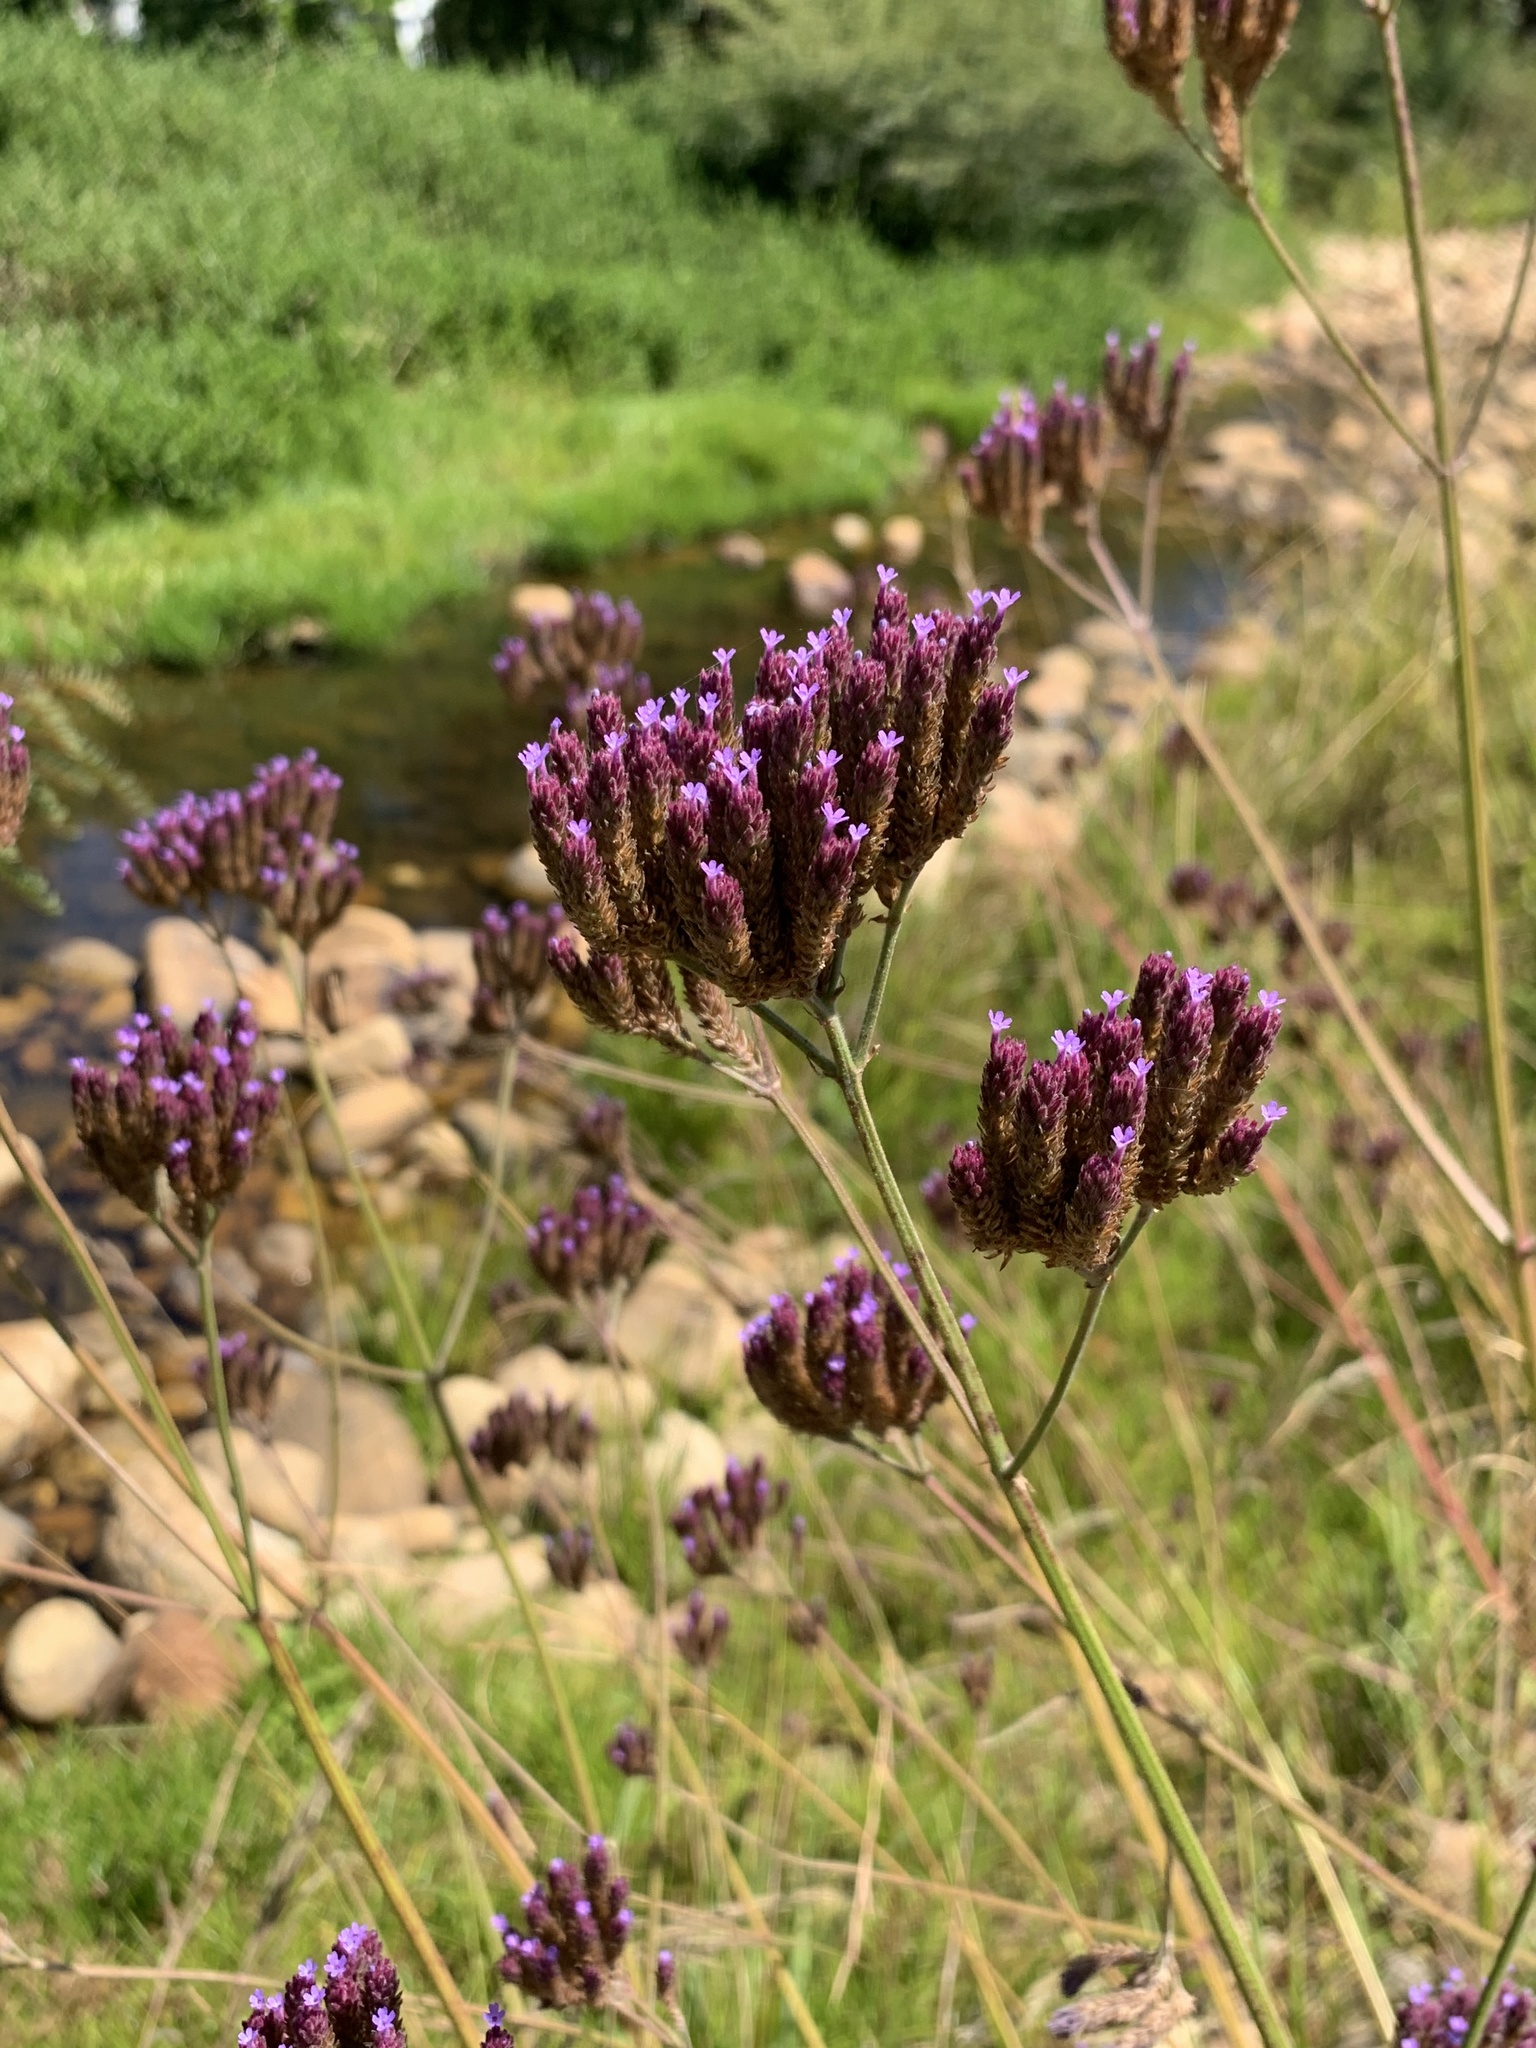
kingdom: Plantae
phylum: Tracheophyta
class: Magnoliopsida
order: Lamiales
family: Verbenaceae
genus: Verbena
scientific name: Verbena bonariensis
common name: Purpletop vervain
